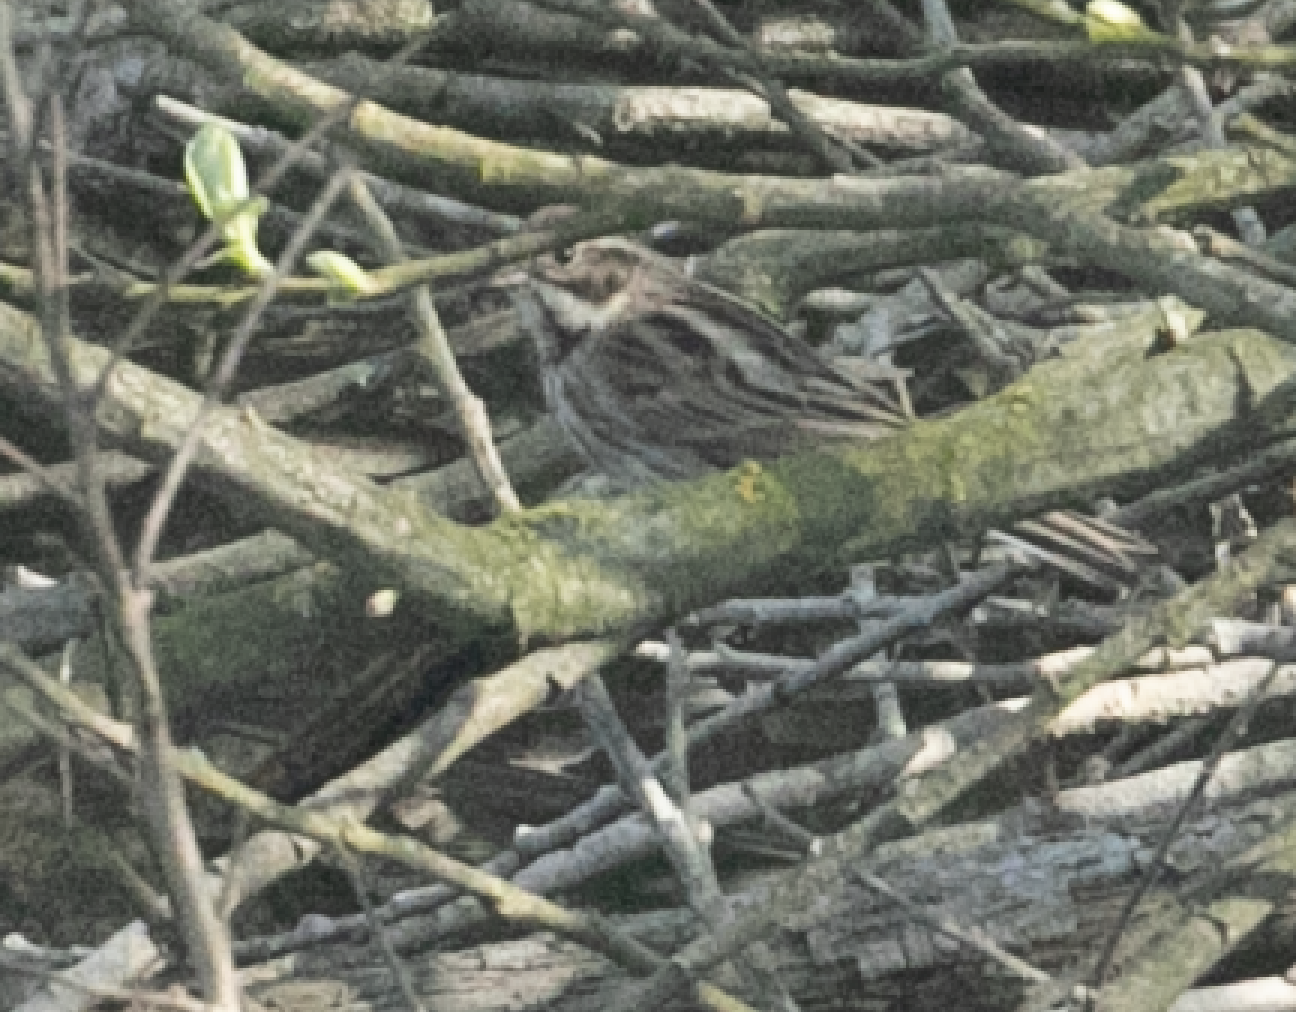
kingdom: Animalia
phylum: Chordata
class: Aves
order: Passeriformes
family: Emberizidae
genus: Emberiza
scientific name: Emberiza schoeniclus
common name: Reed bunting
